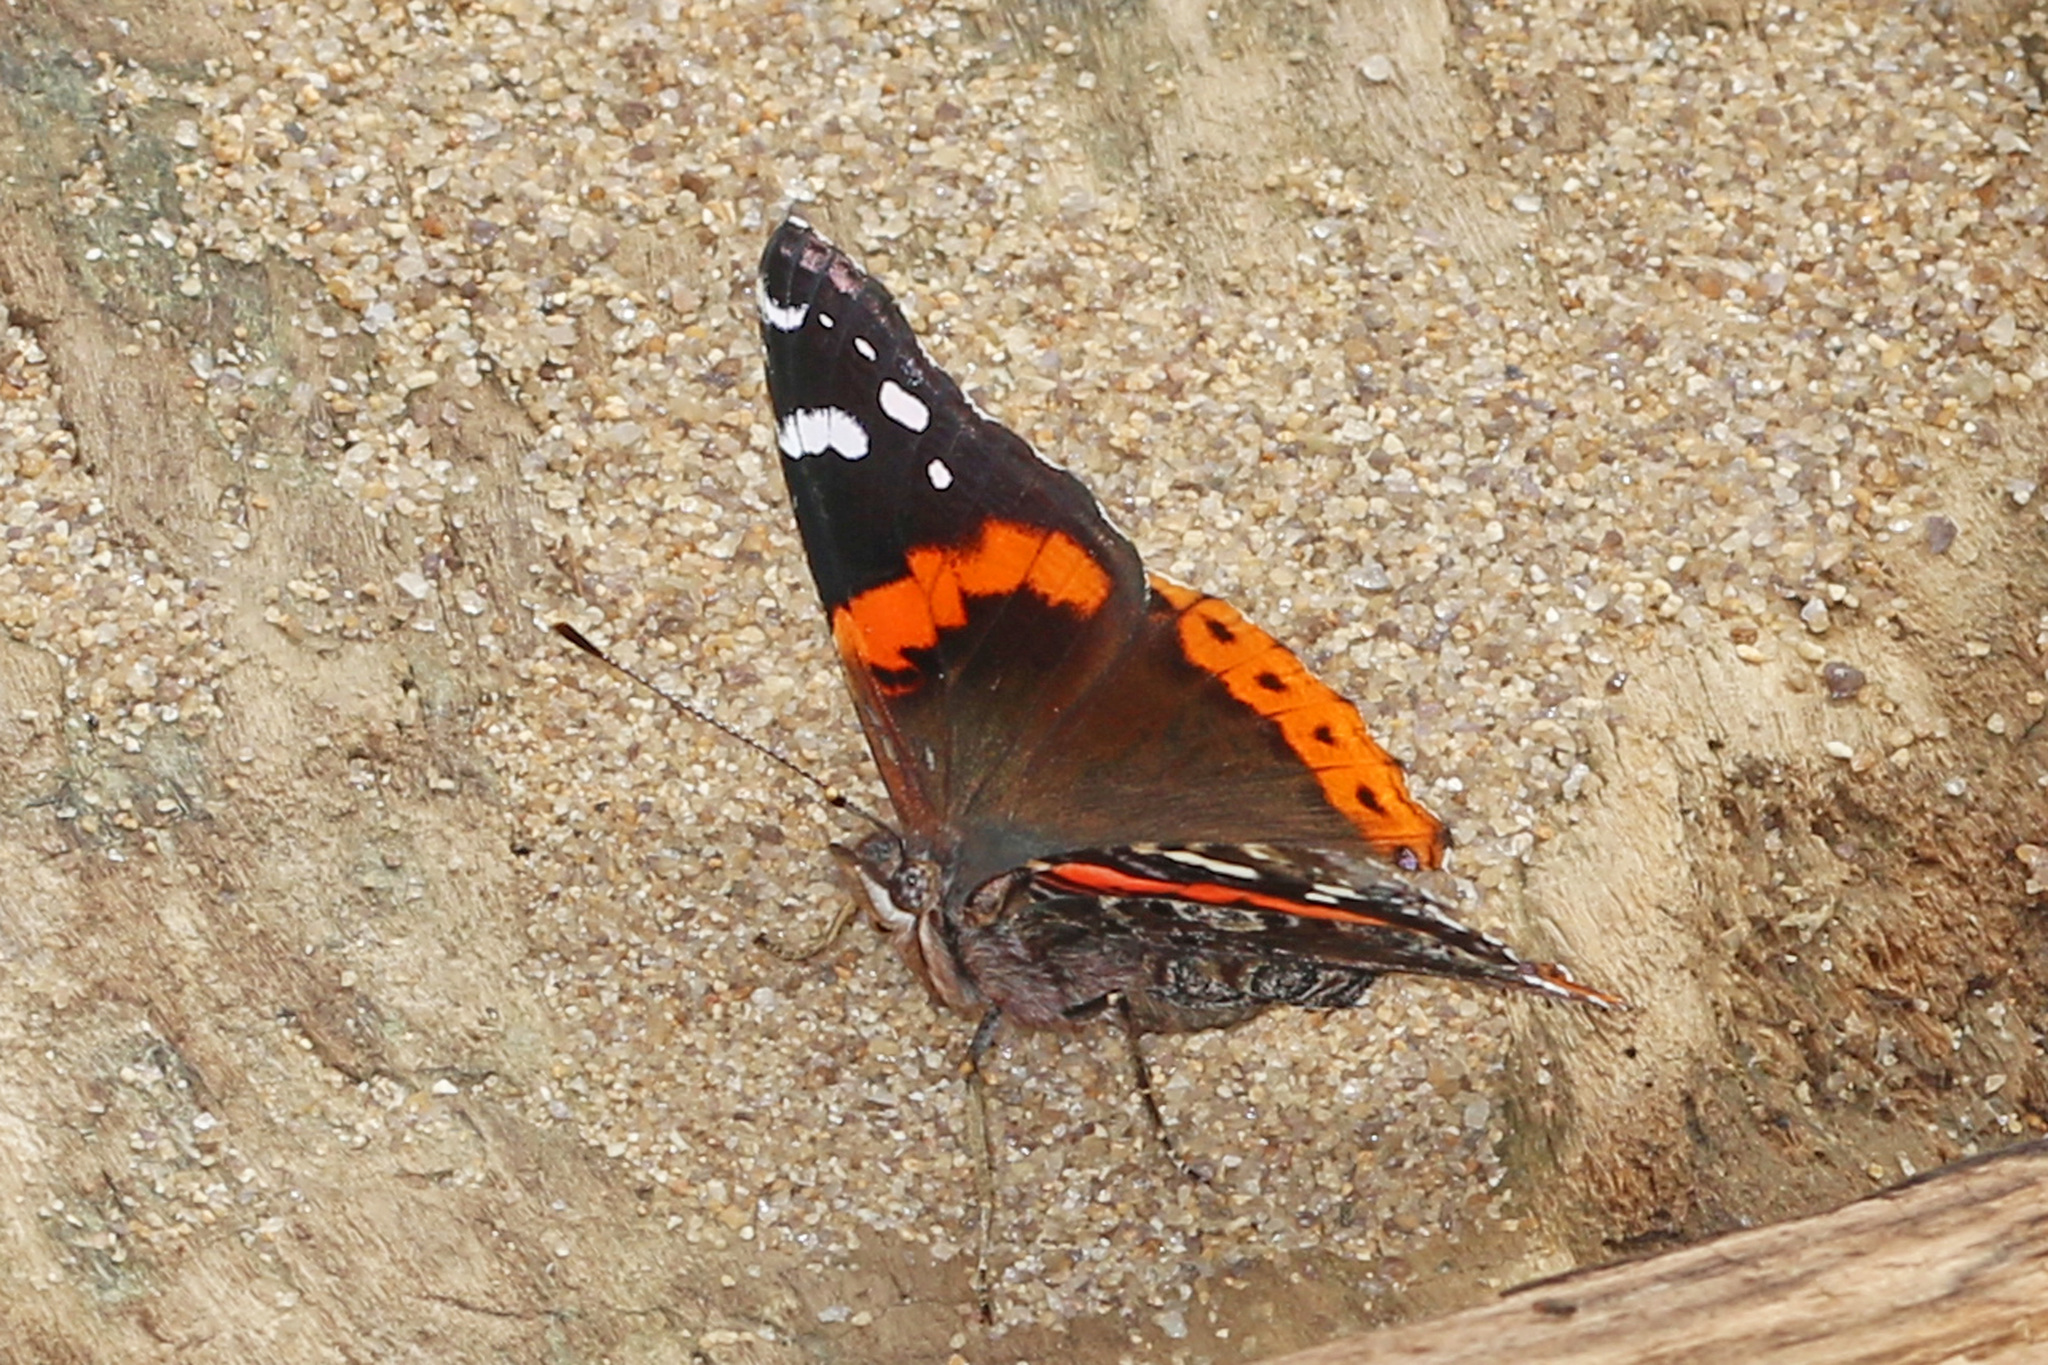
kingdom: Animalia
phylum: Arthropoda
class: Insecta
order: Lepidoptera
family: Nymphalidae
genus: Vanessa
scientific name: Vanessa atalanta
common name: Red admiral
